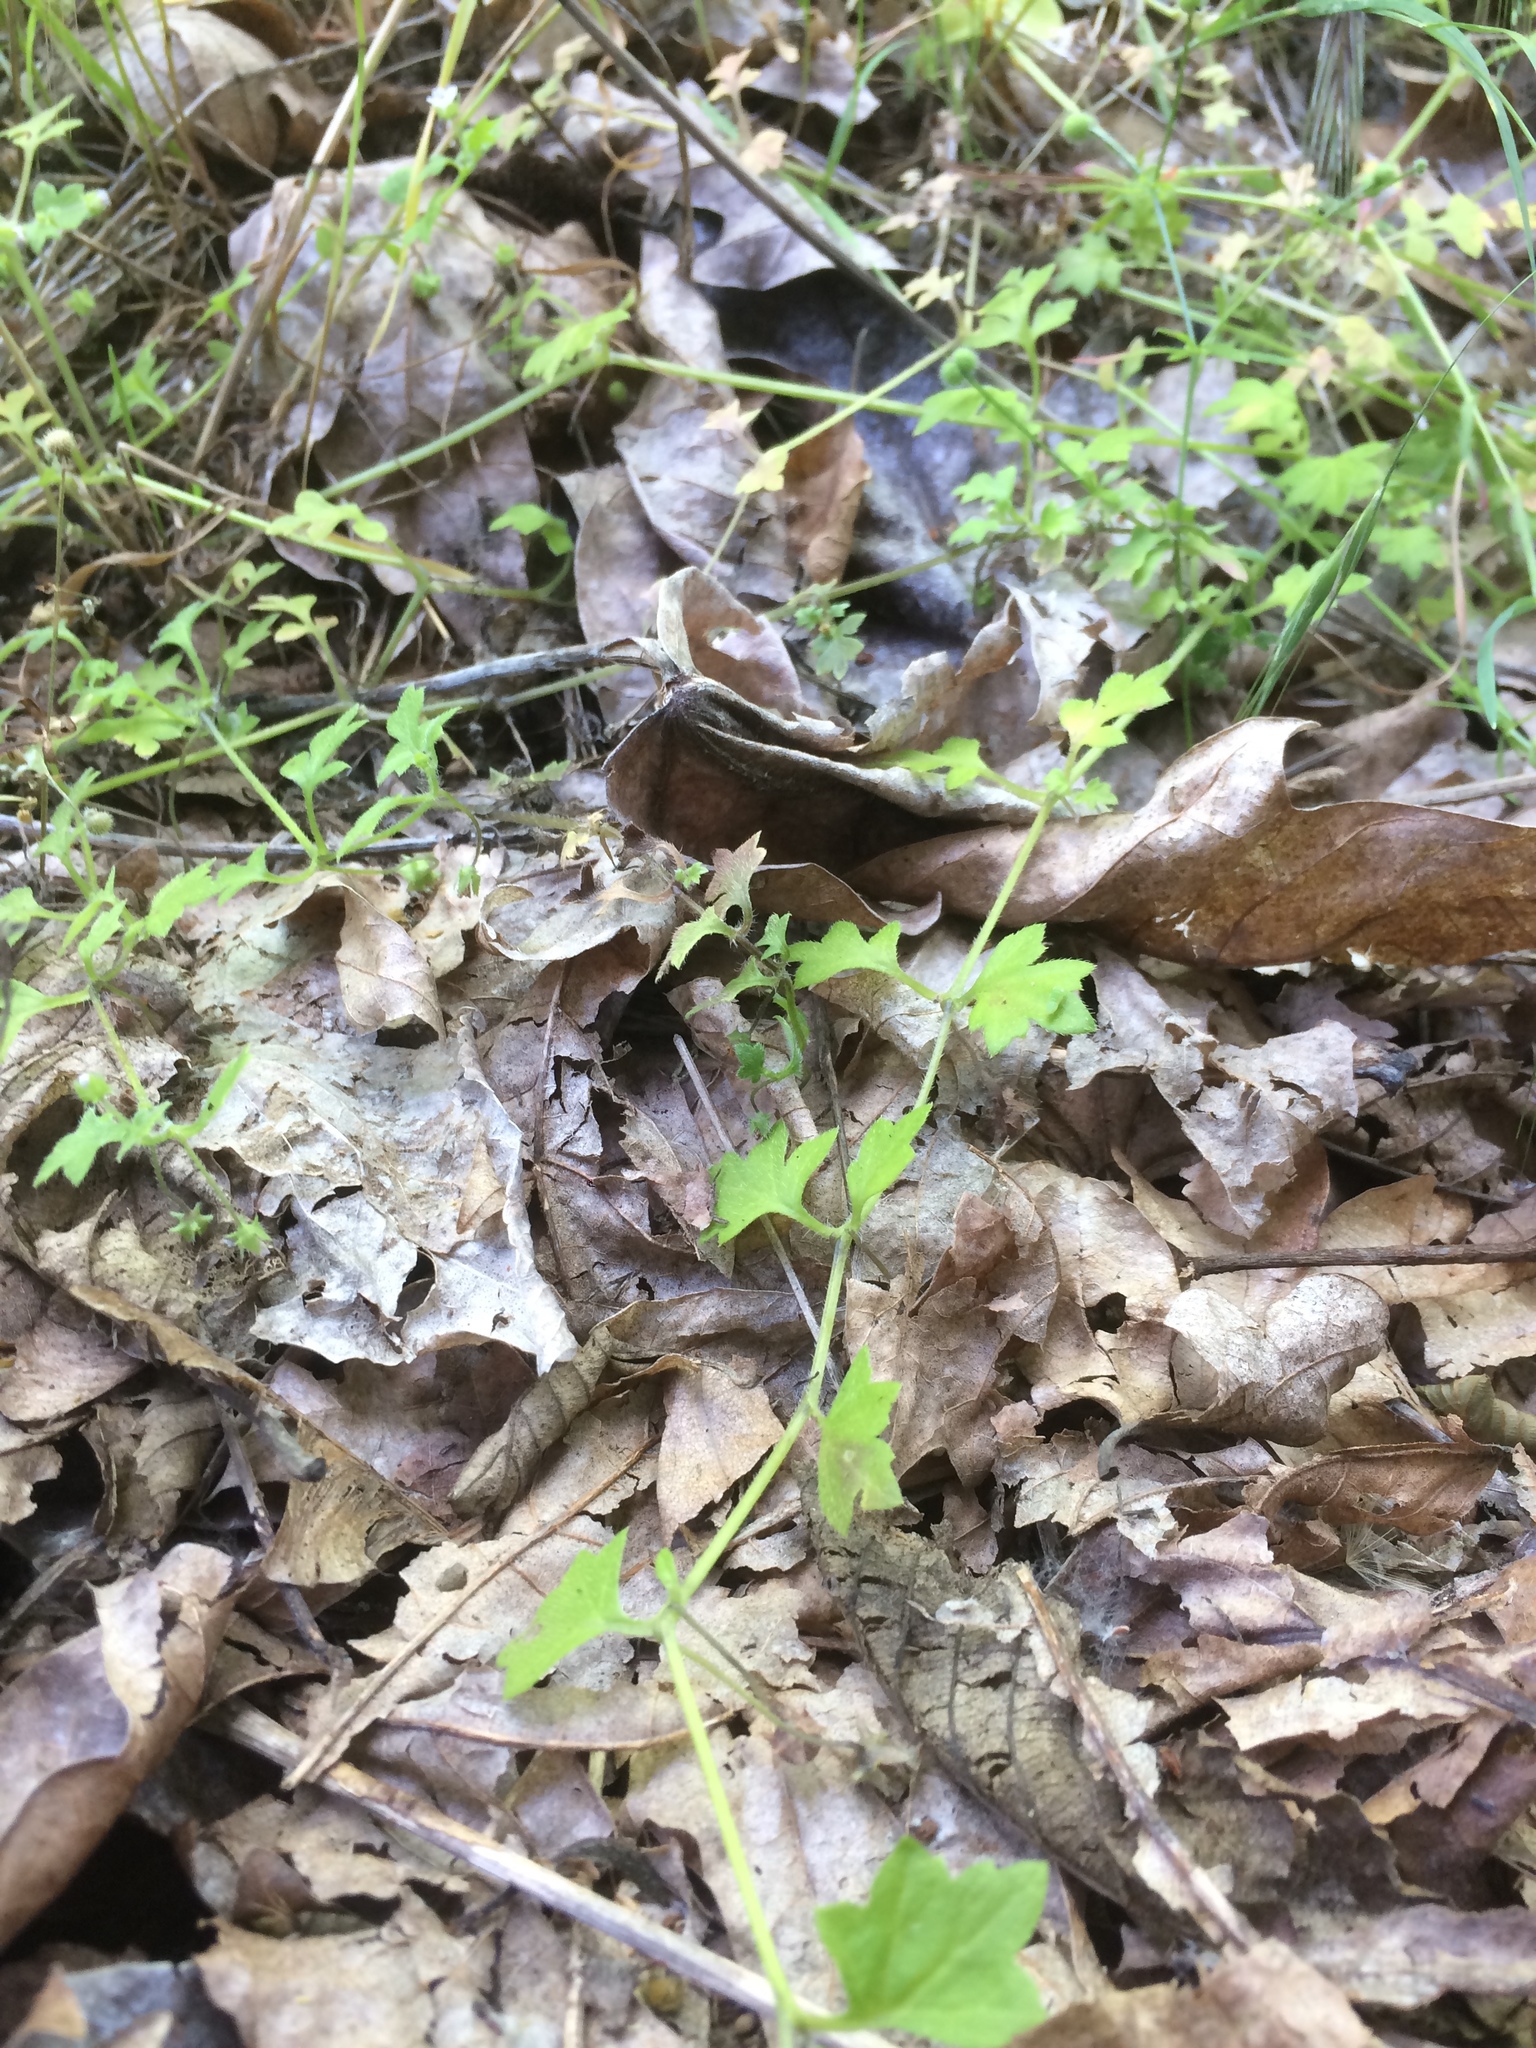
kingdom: Plantae
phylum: Tracheophyta
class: Magnoliopsida
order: Boraginales
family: Hydrophyllaceae
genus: Nemophila
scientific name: Nemophila parviflora
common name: Small-flowered baby-blue-eyes
